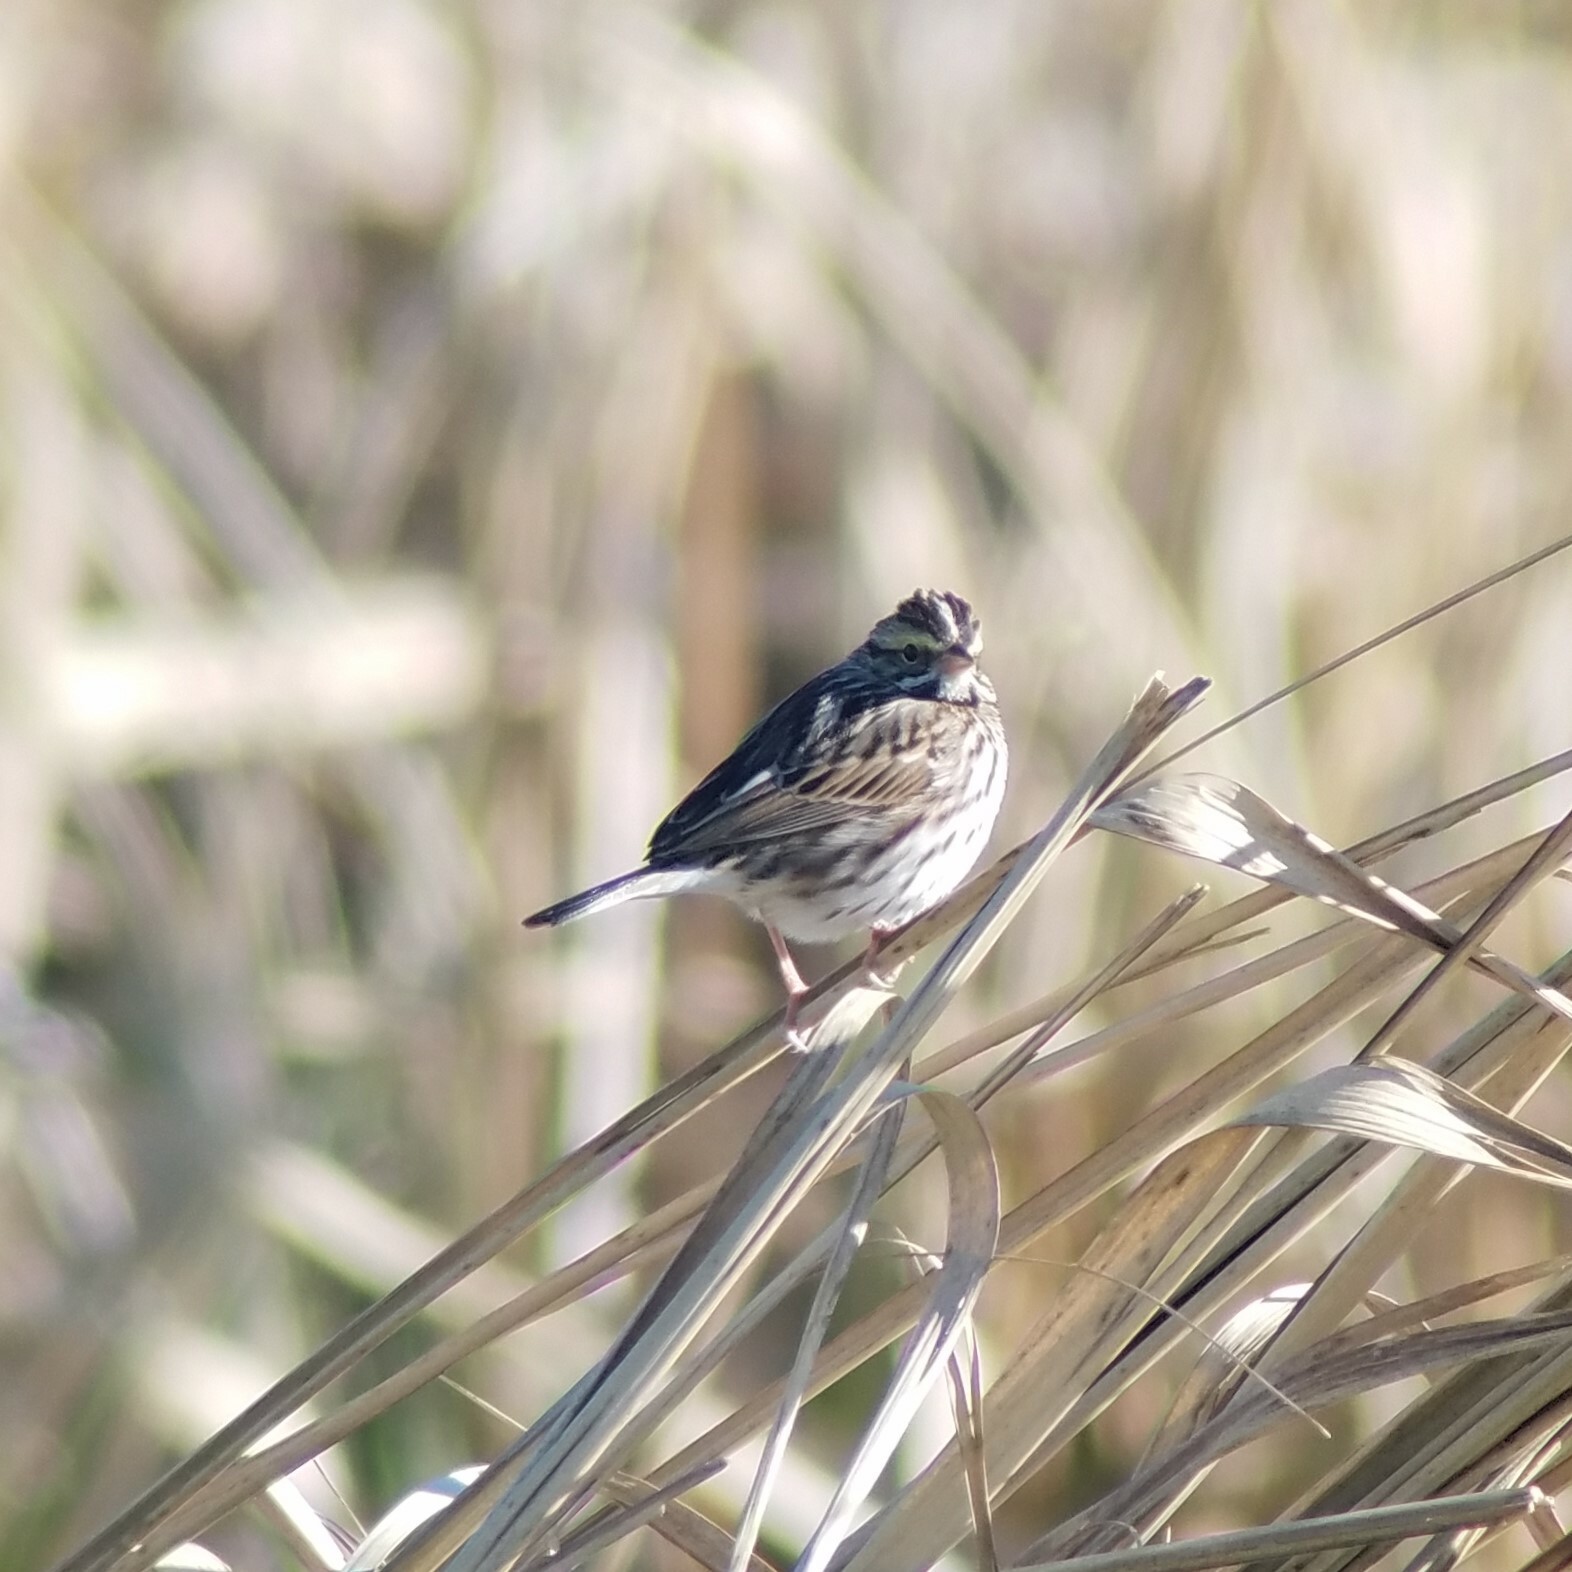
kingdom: Animalia
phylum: Chordata
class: Aves
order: Passeriformes
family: Passerellidae
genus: Passerculus
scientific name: Passerculus sandwichensis
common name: Savannah sparrow
